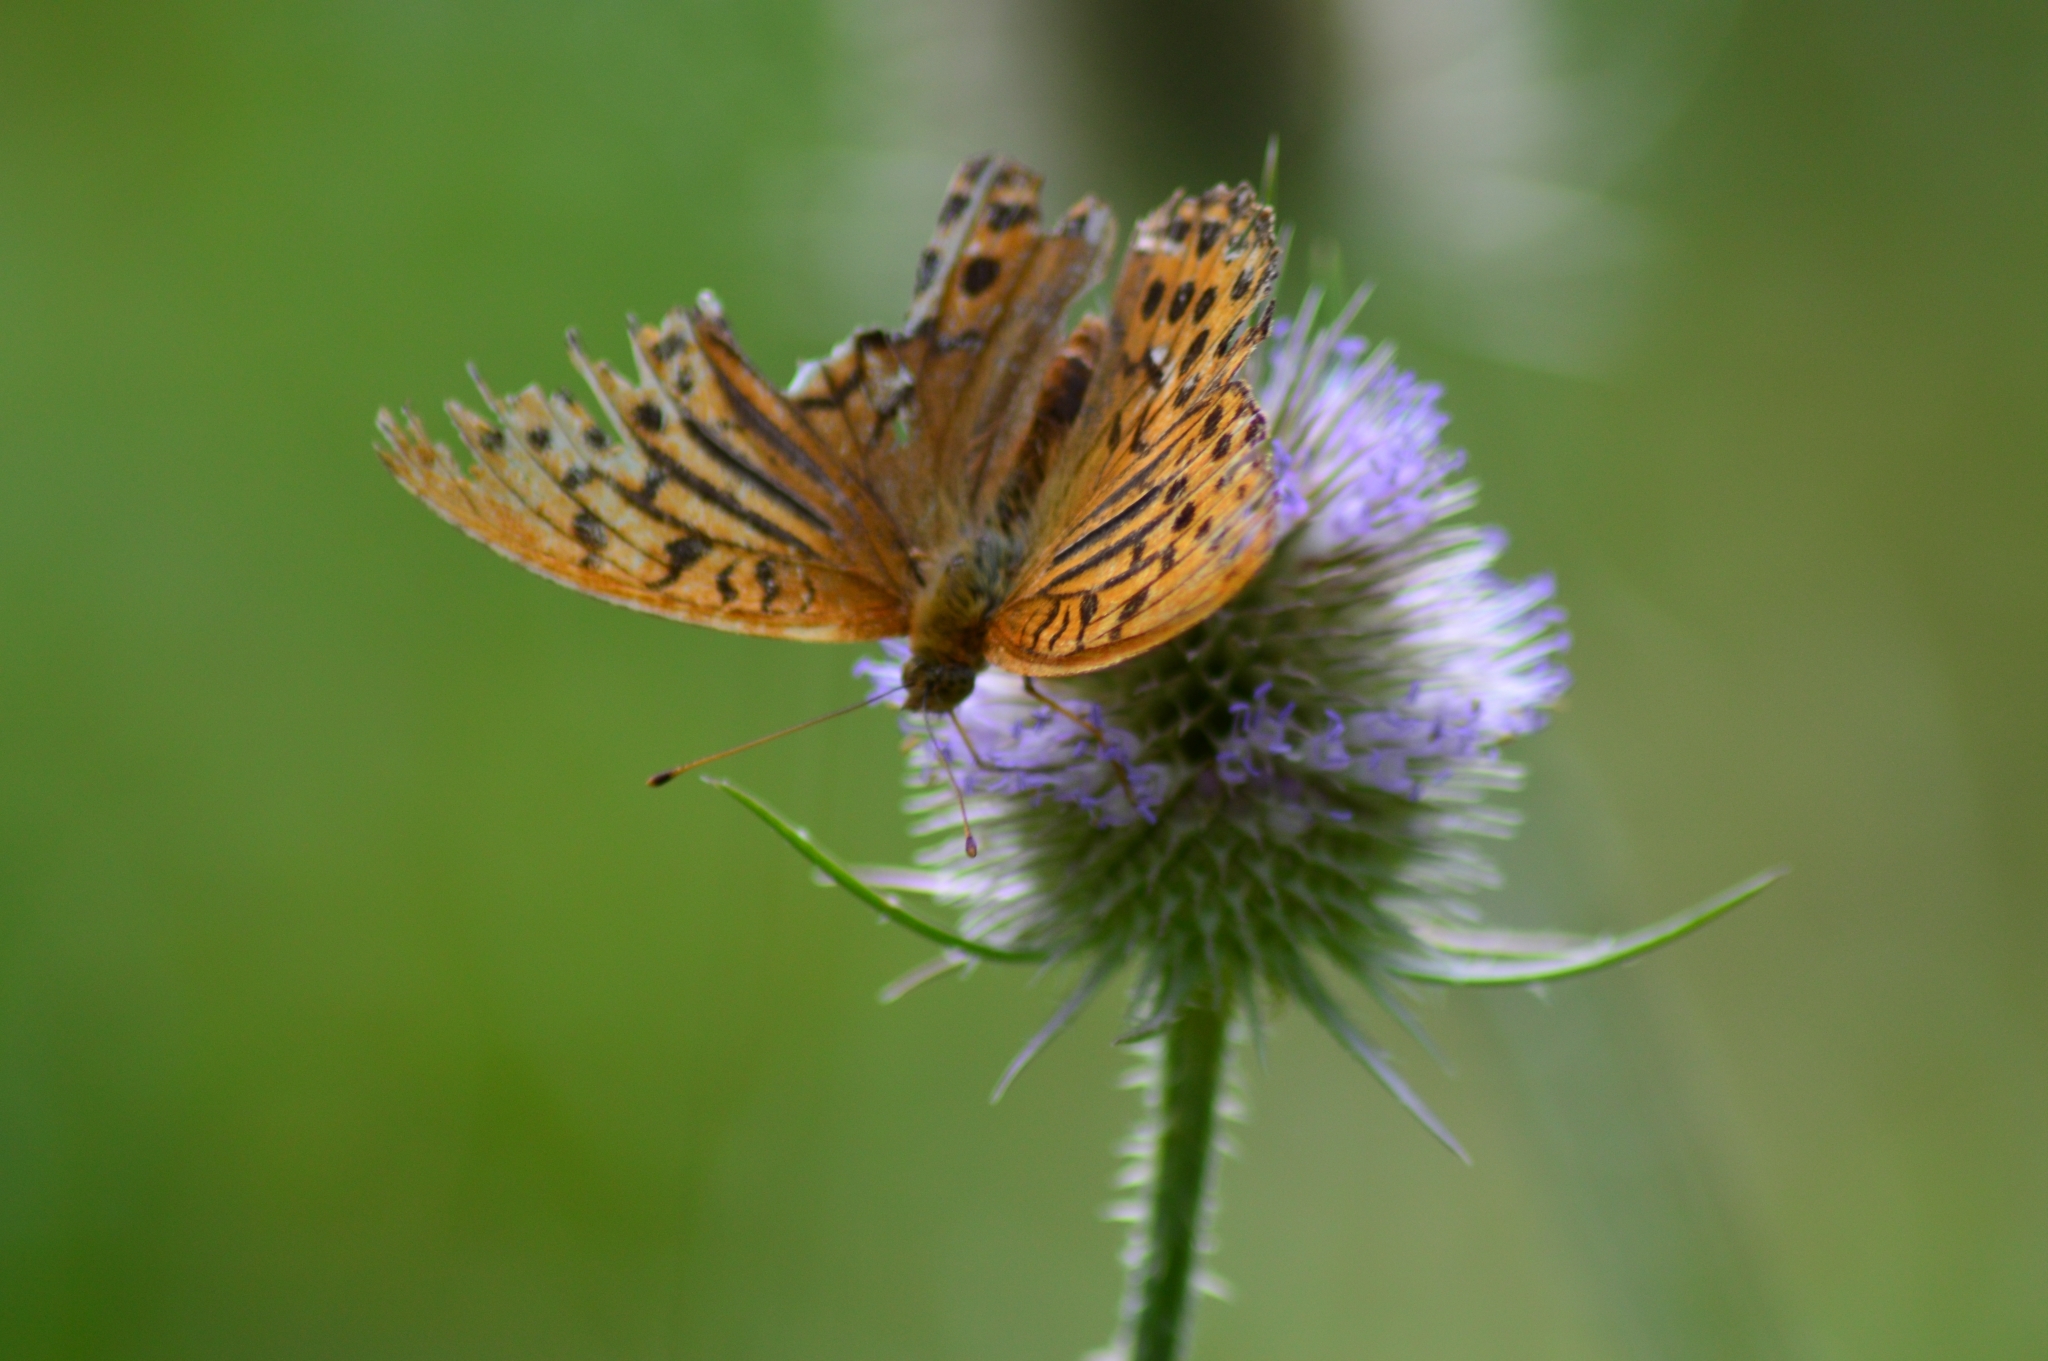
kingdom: Animalia
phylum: Arthropoda
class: Insecta
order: Lepidoptera
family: Nymphalidae
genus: Argynnis
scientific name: Argynnis paphia
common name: Silver-washed fritillary
